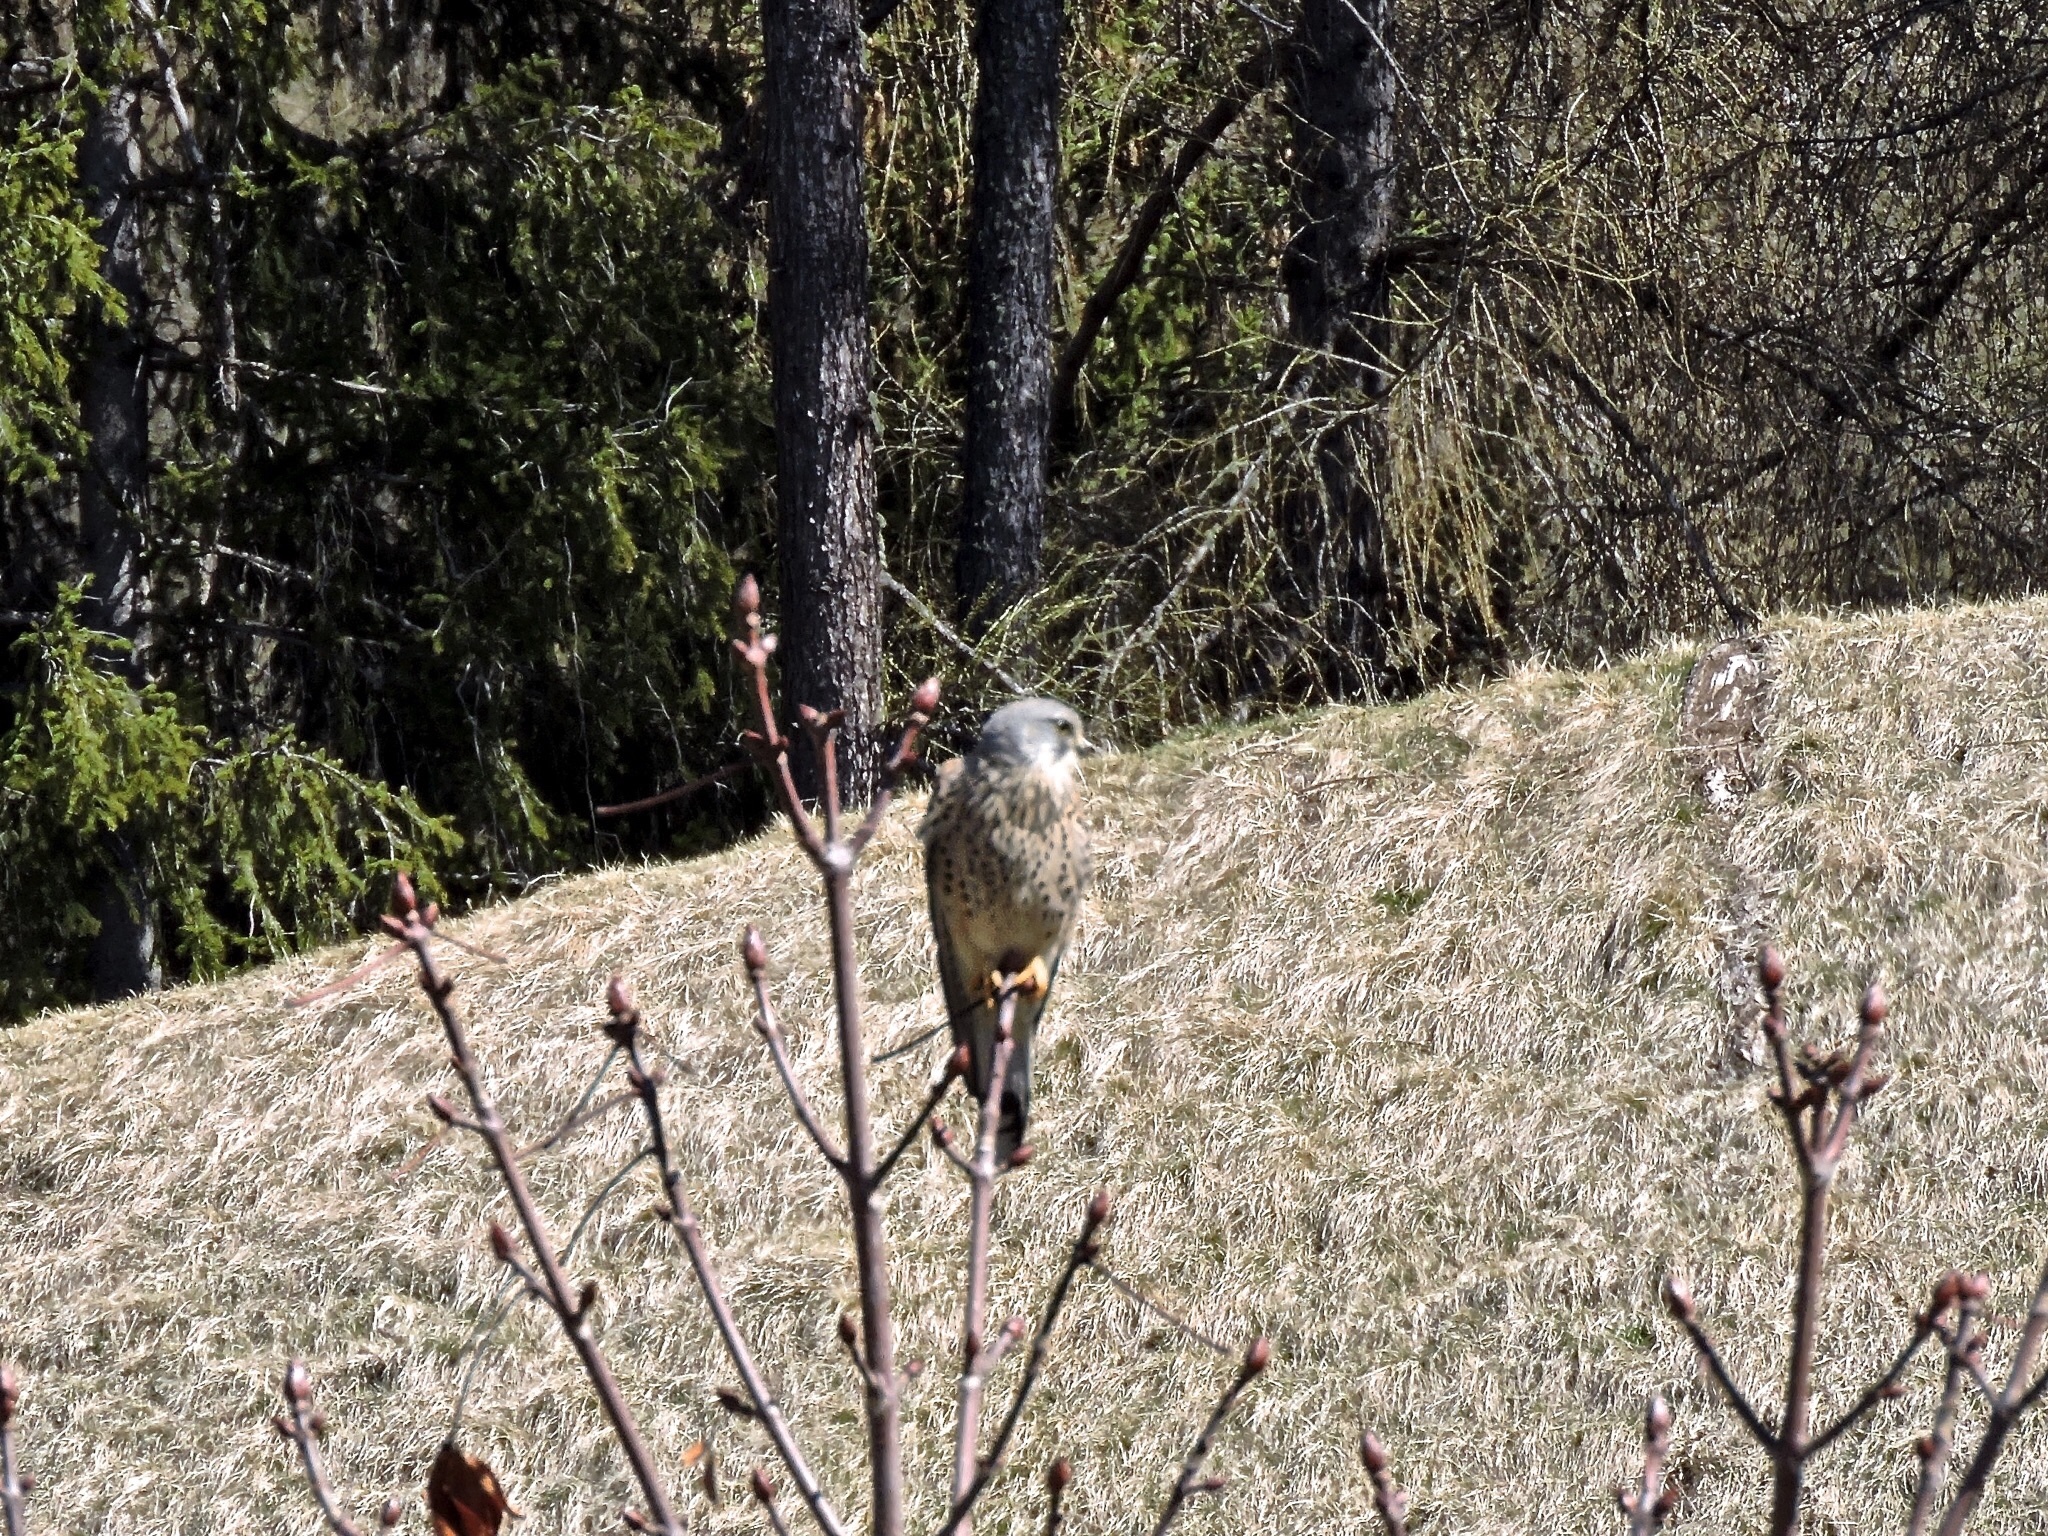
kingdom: Animalia
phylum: Chordata
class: Aves
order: Falconiformes
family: Falconidae
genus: Falco
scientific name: Falco tinnunculus
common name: Common kestrel
